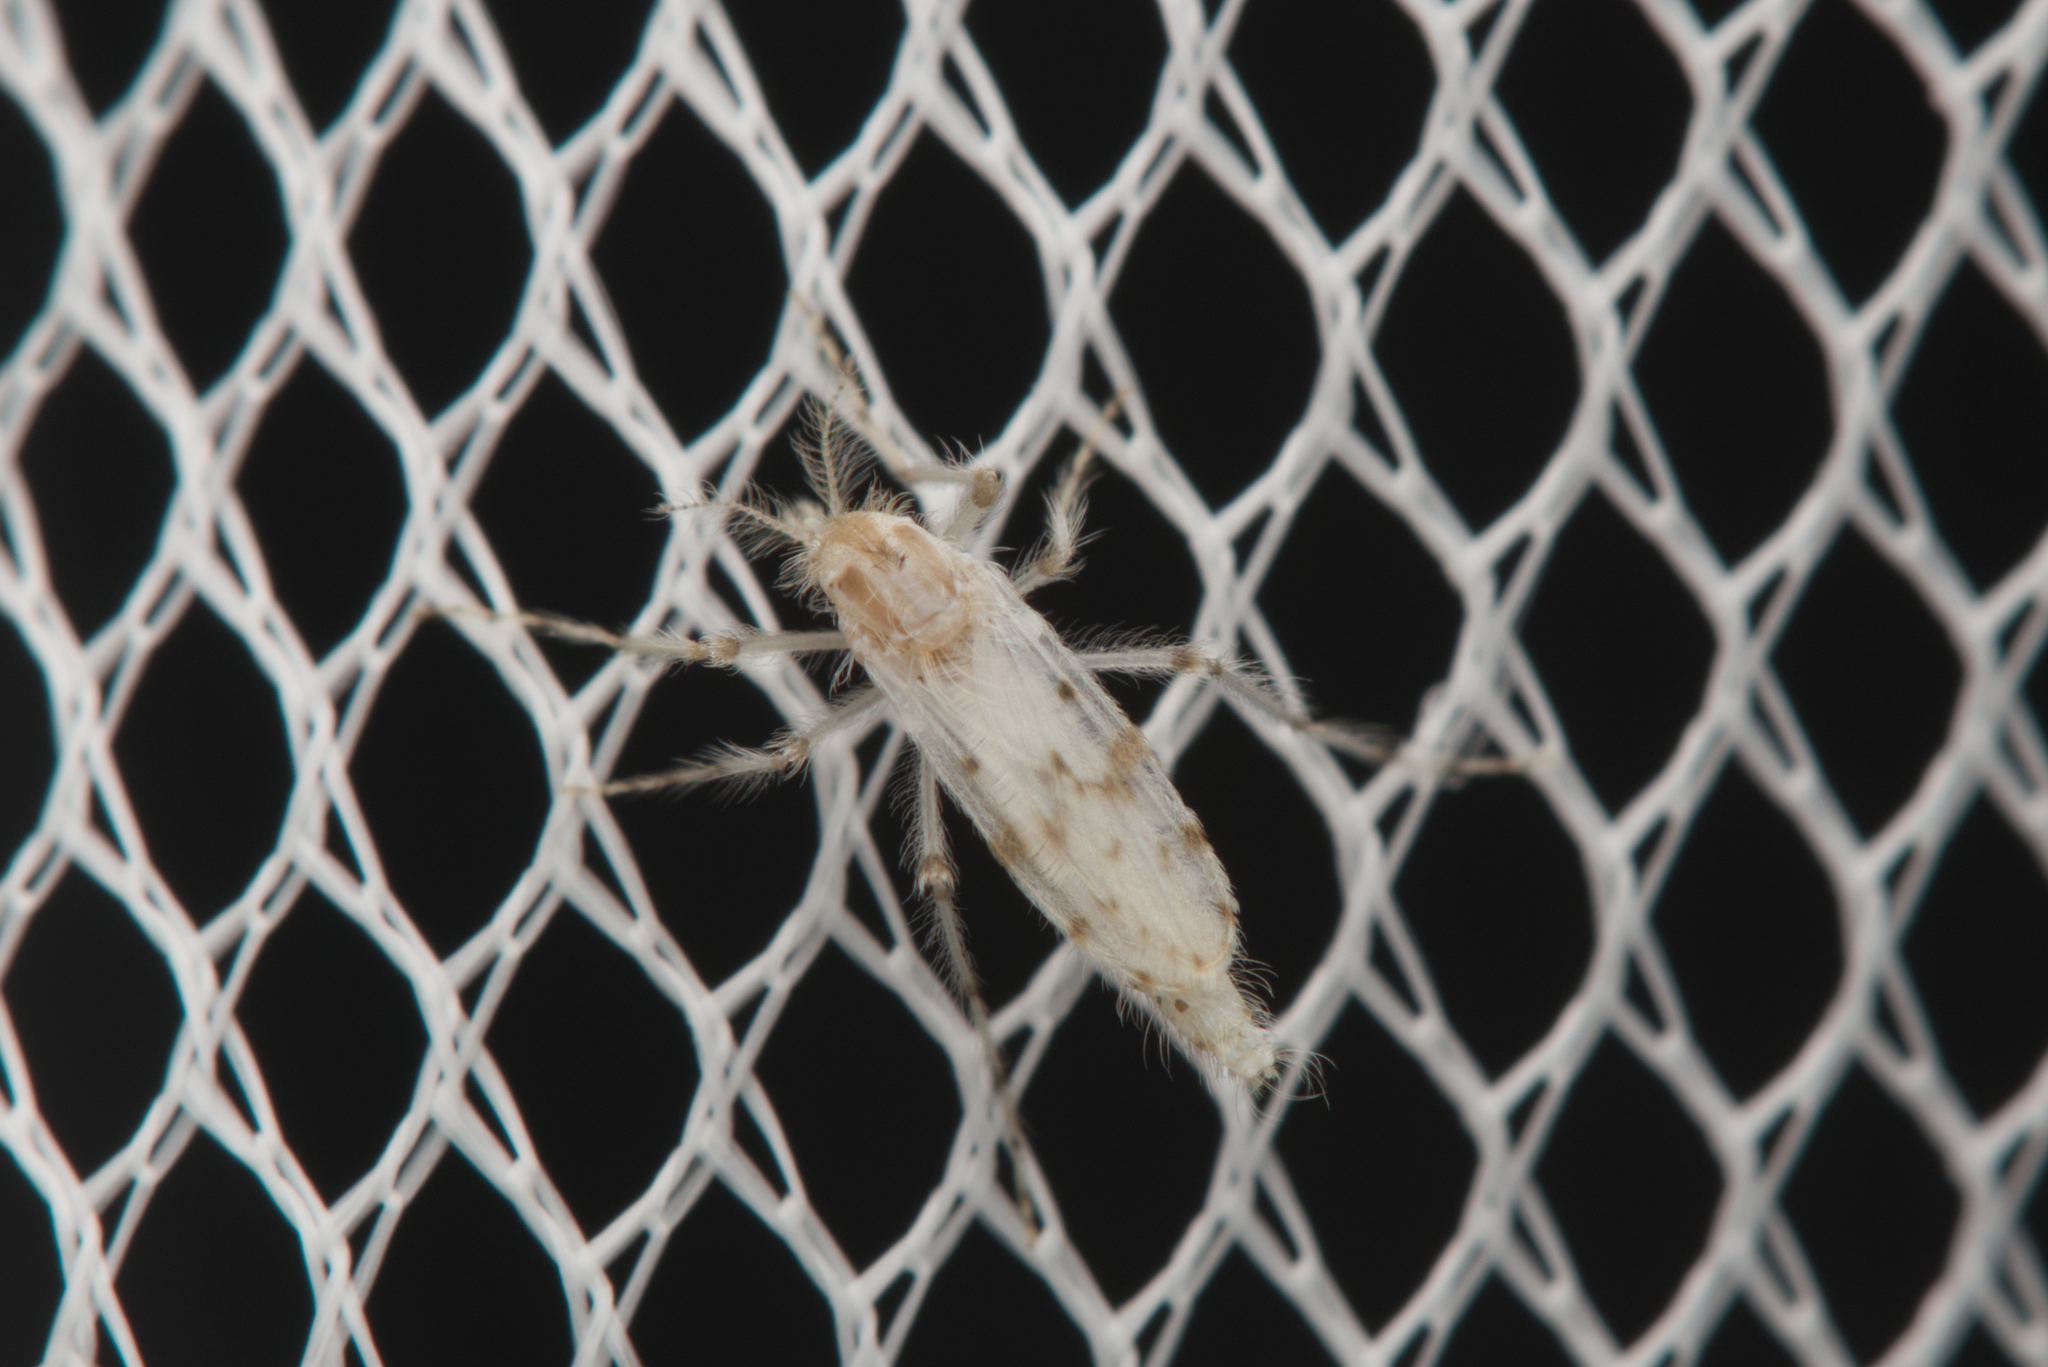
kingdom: Animalia
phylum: Arthropoda
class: Insecta
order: Diptera
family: Chaoboridae
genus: Chaoborus
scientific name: Chaoborus ornatipennis
